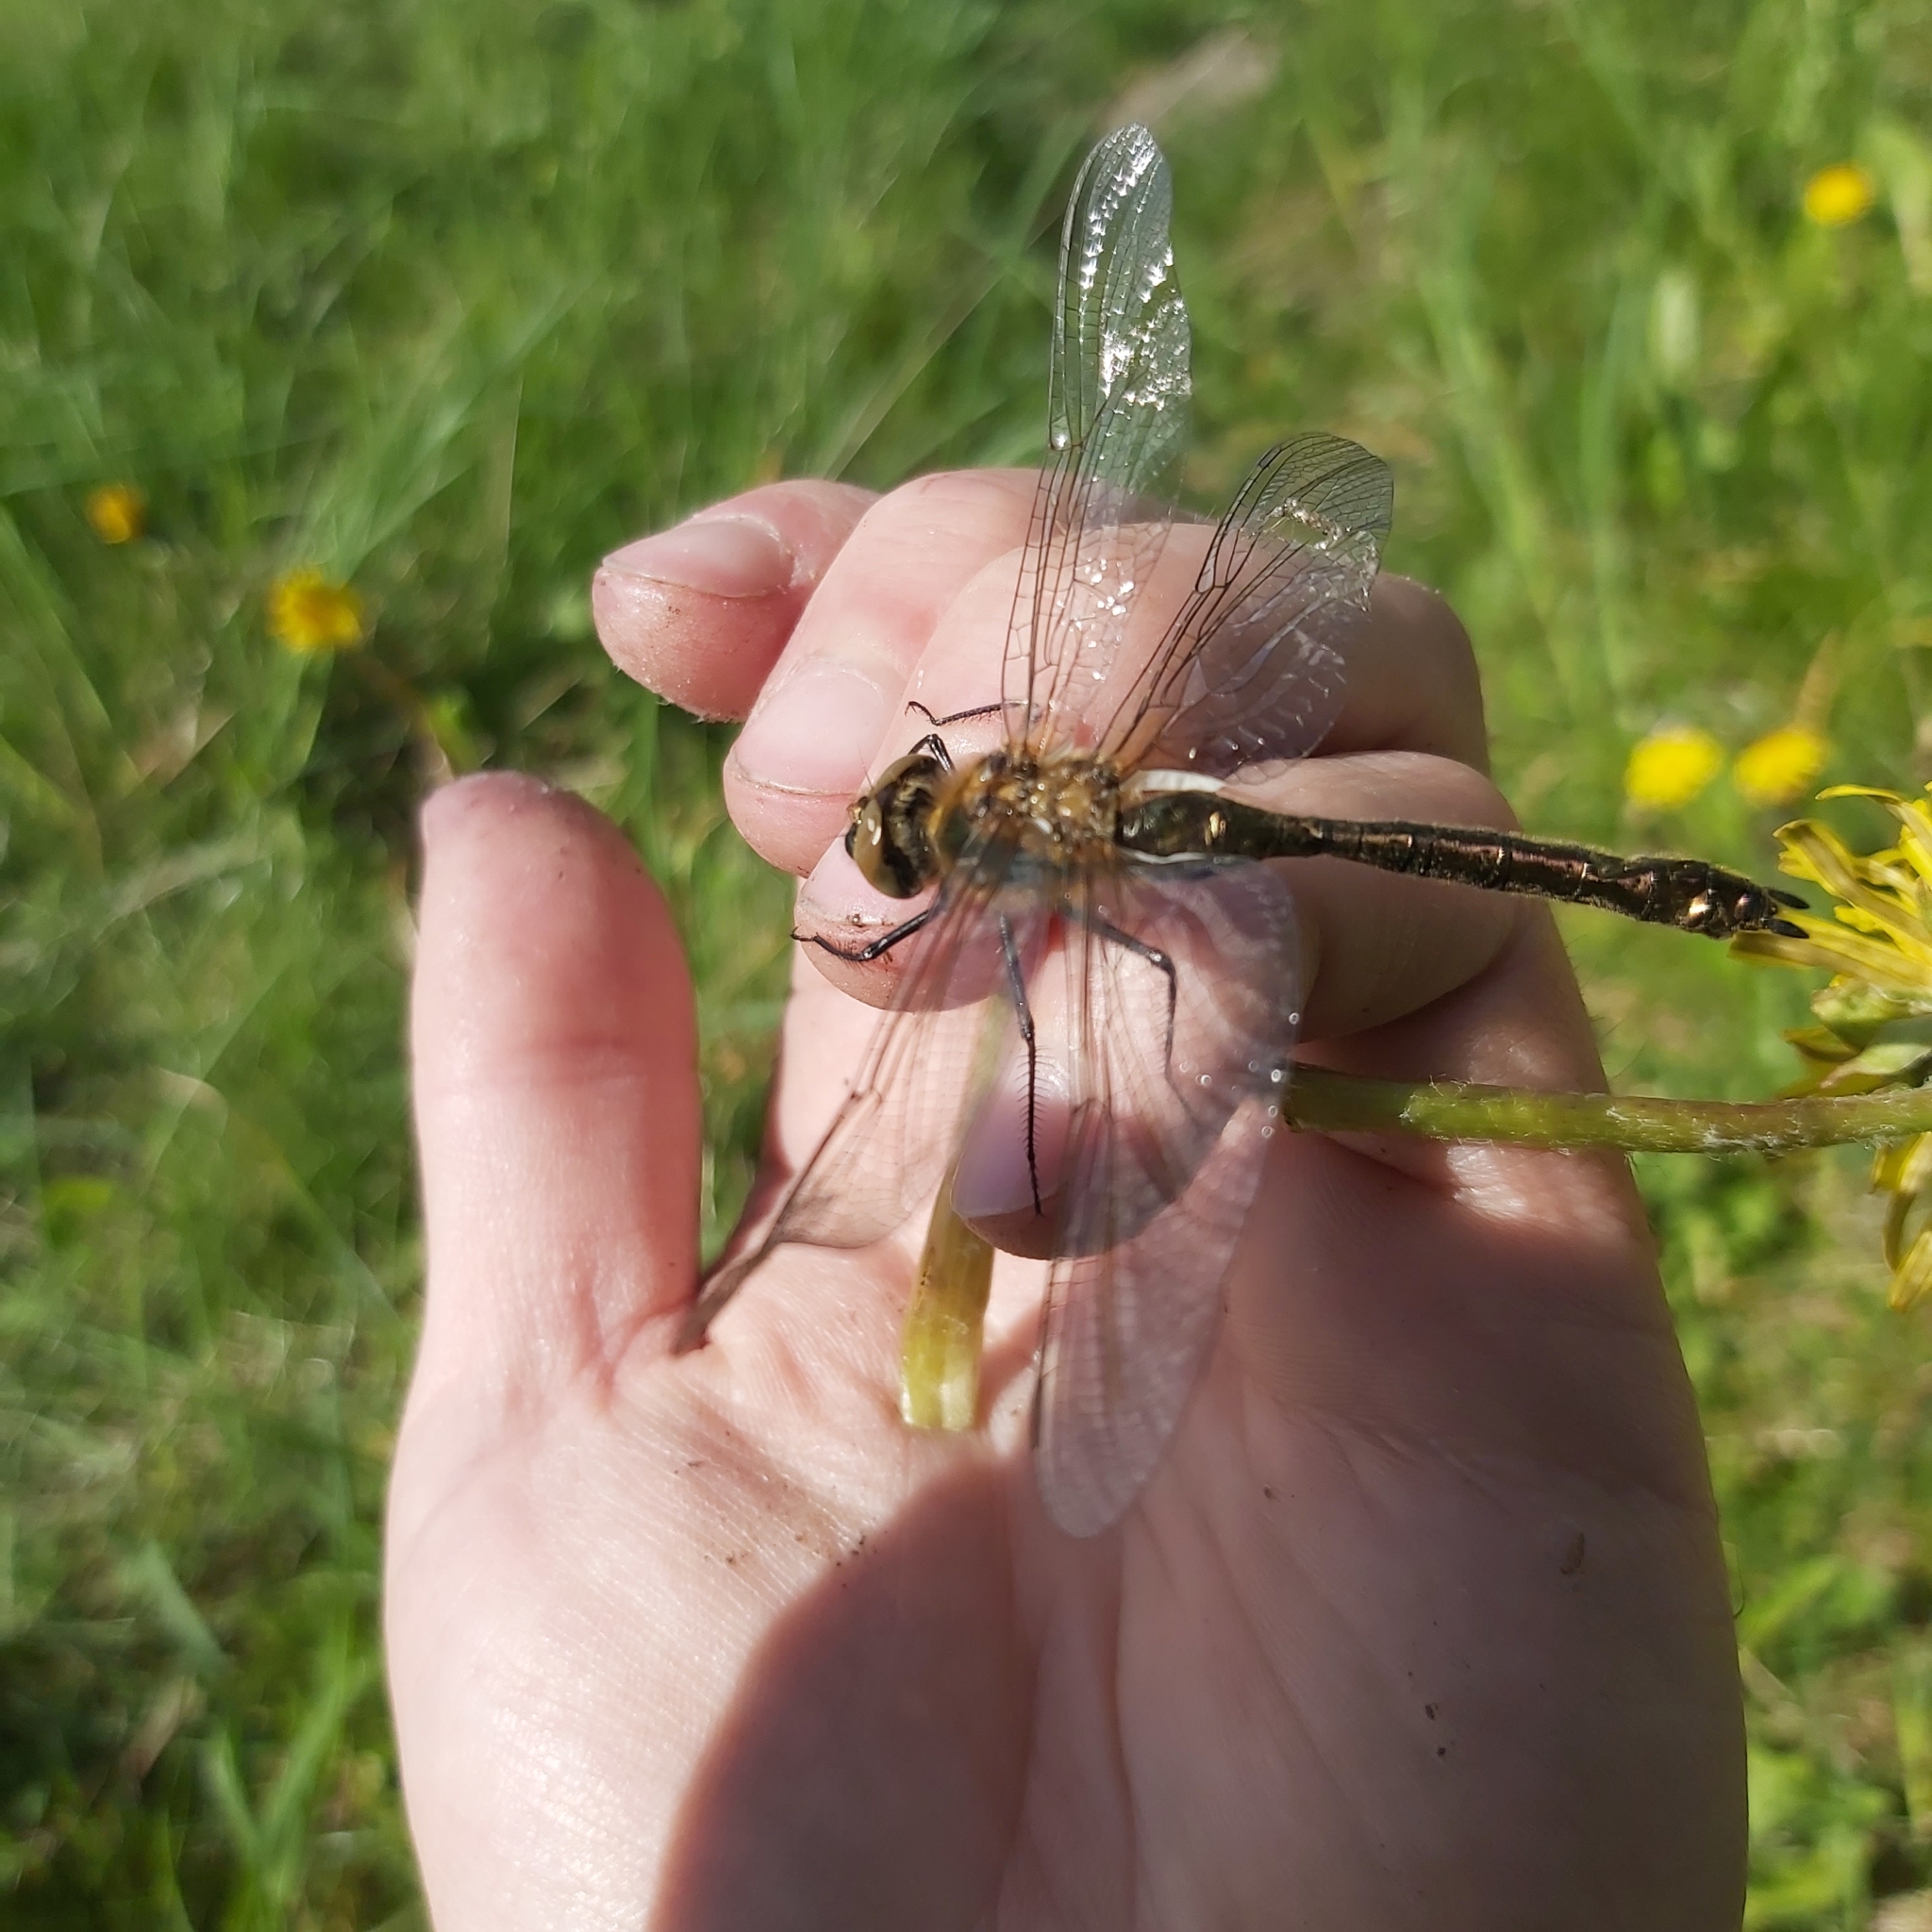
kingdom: Animalia
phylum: Arthropoda
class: Insecta
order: Odonata
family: Corduliidae
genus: Cordulia
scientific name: Cordulia aenea
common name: Downy emerald
